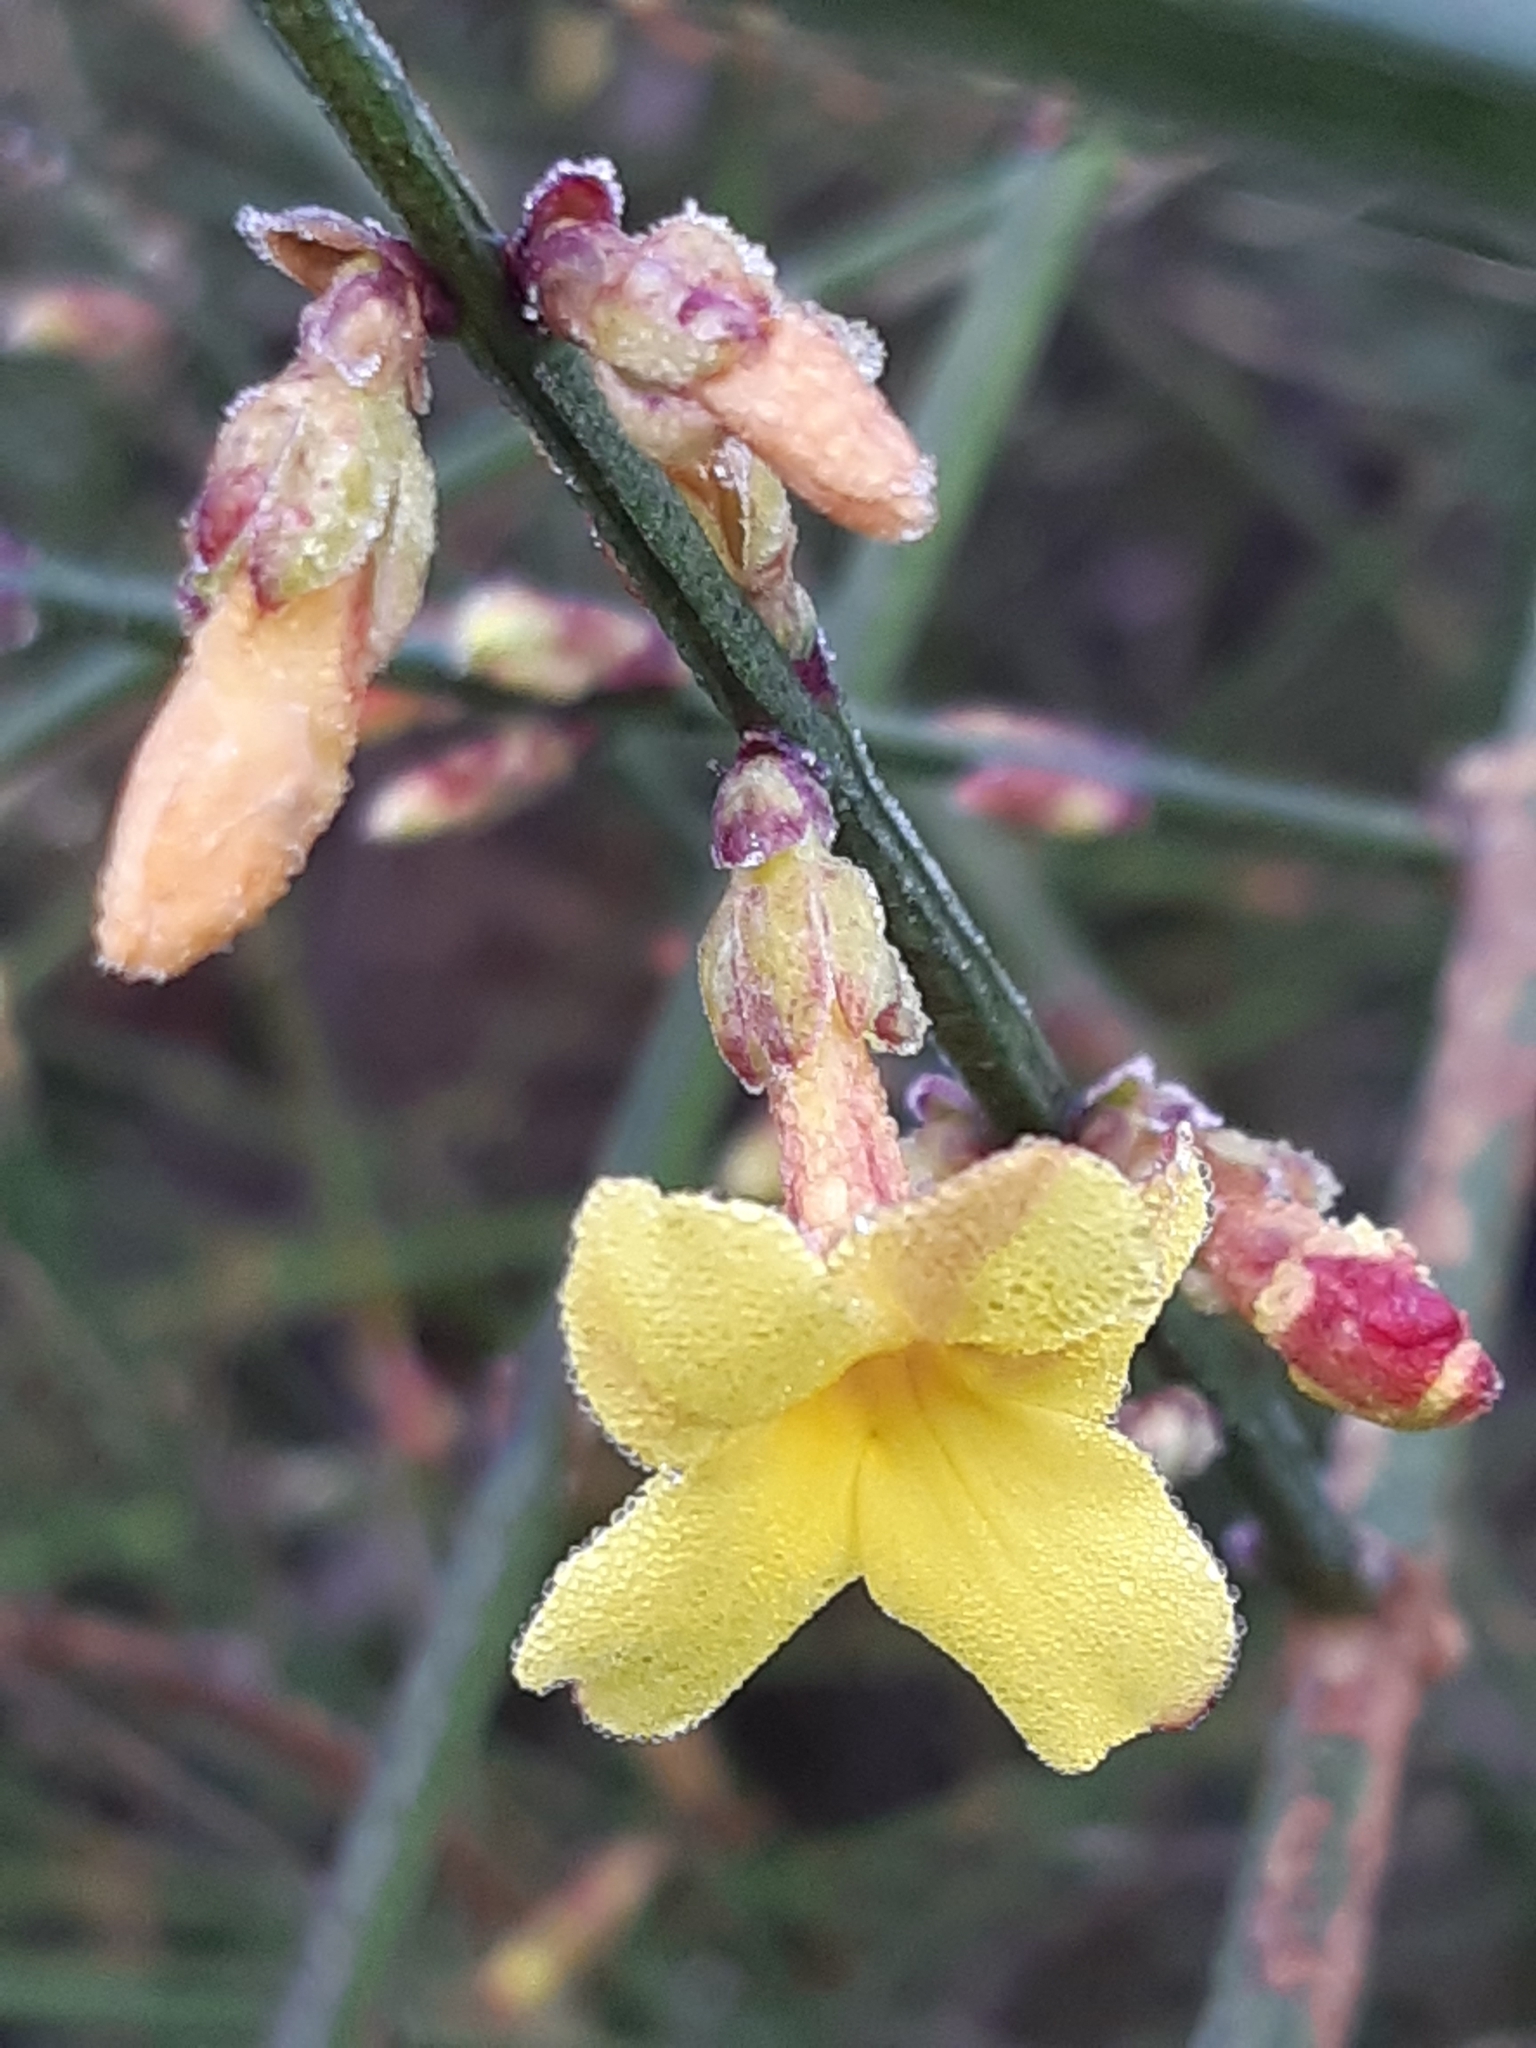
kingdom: Plantae
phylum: Tracheophyta
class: Magnoliopsida
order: Lamiales
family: Oleaceae
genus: Jasminum
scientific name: Jasminum nudiflorum
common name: Winter jasmine
